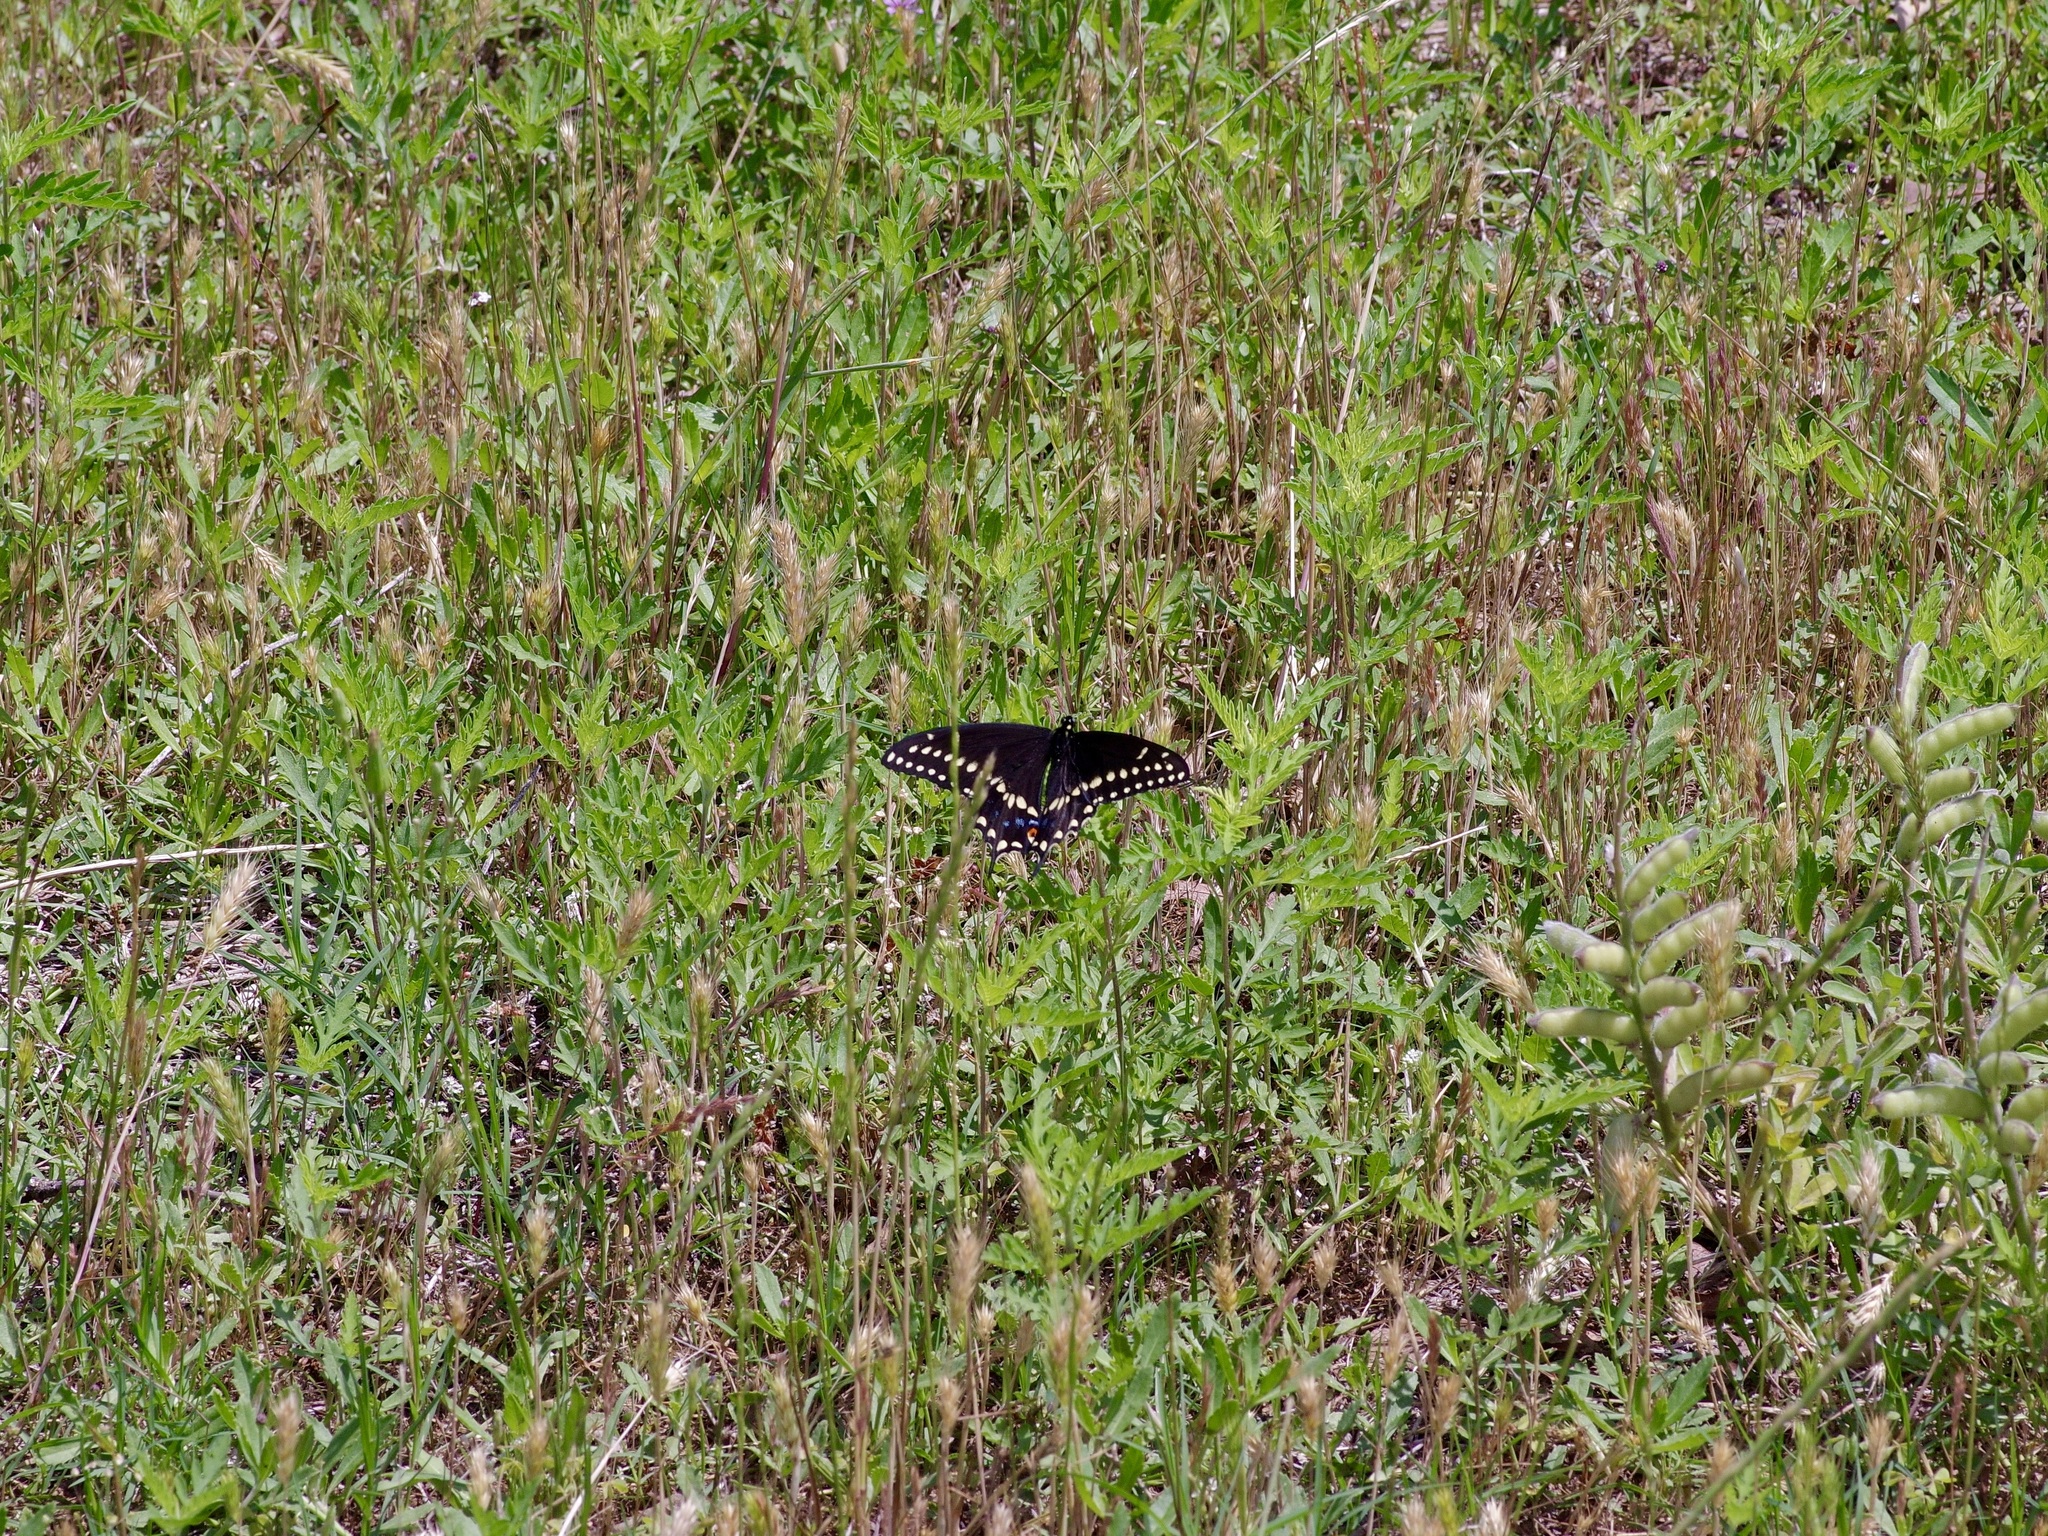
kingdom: Animalia
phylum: Arthropoda
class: Insecta
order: Lepidoptera
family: Papilionidae
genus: Papilio
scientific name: Papilio polyxenes
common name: Black swallowtail
